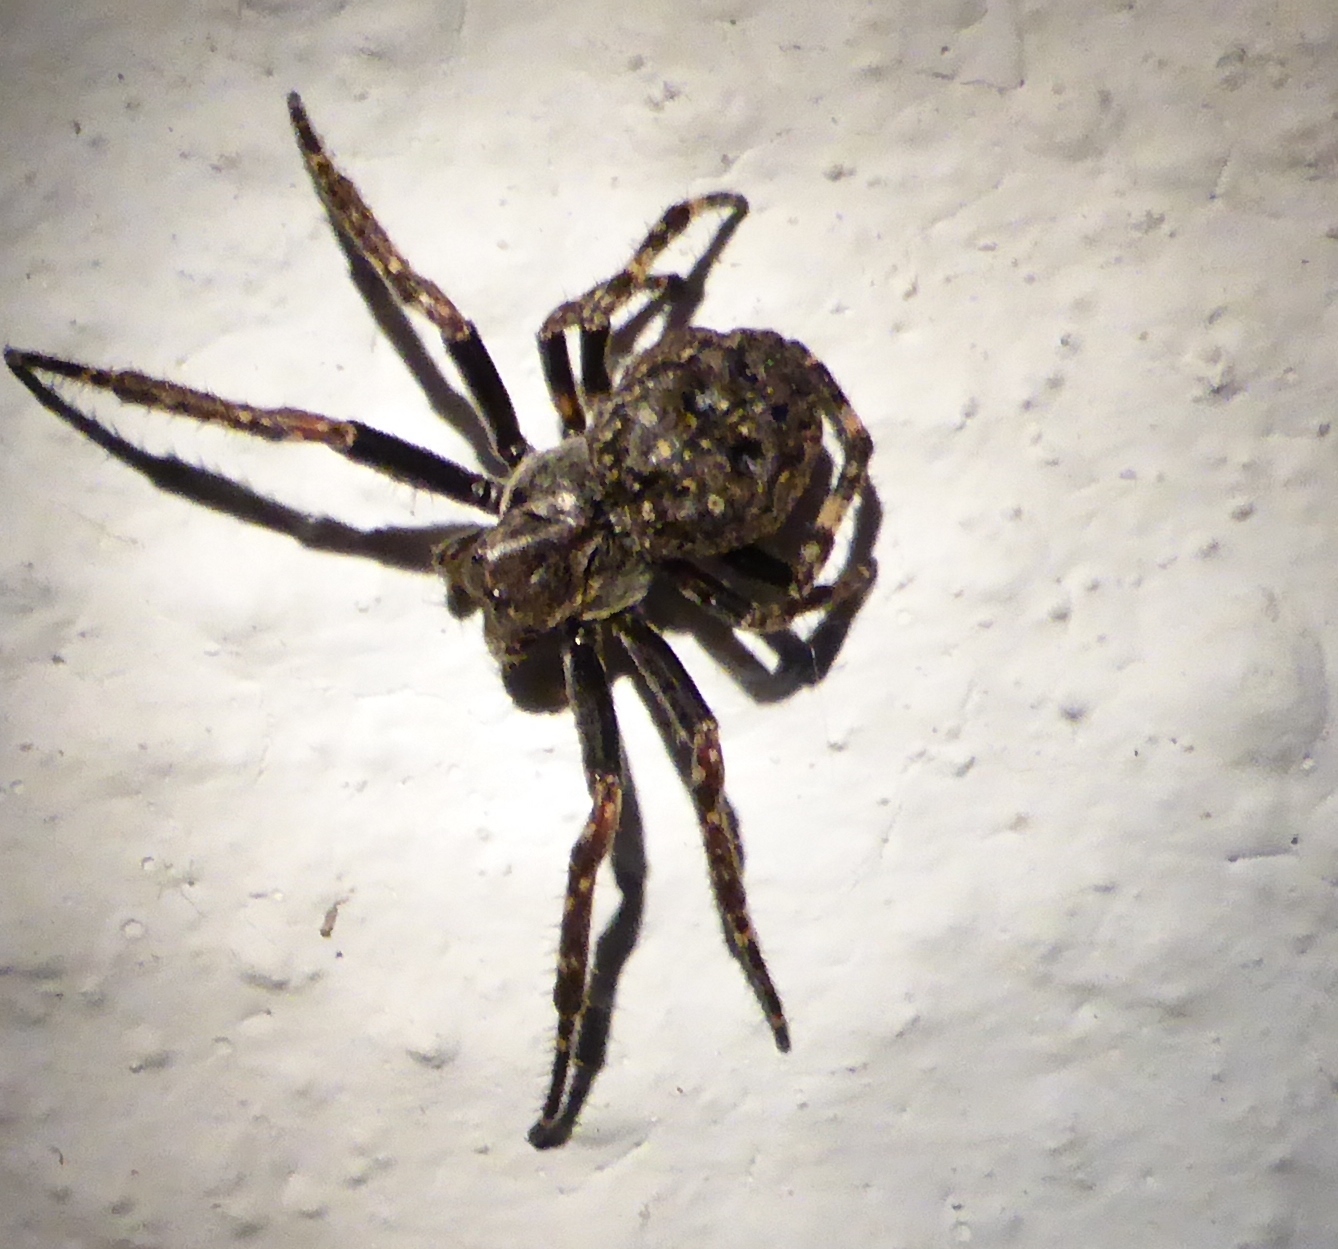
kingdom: Animalia
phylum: Arthropoda
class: Arachnida
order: Araneae
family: Araneidae
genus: Nuctenea
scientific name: Nuctenea umbratica
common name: Toad spider
